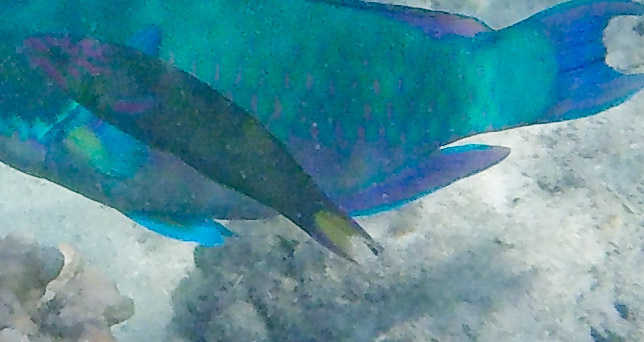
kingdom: Animalia
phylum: Chordata
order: Perciformes
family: Labridae
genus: Thalassoma
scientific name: Thalassoma lunare
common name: Blue wrasse
